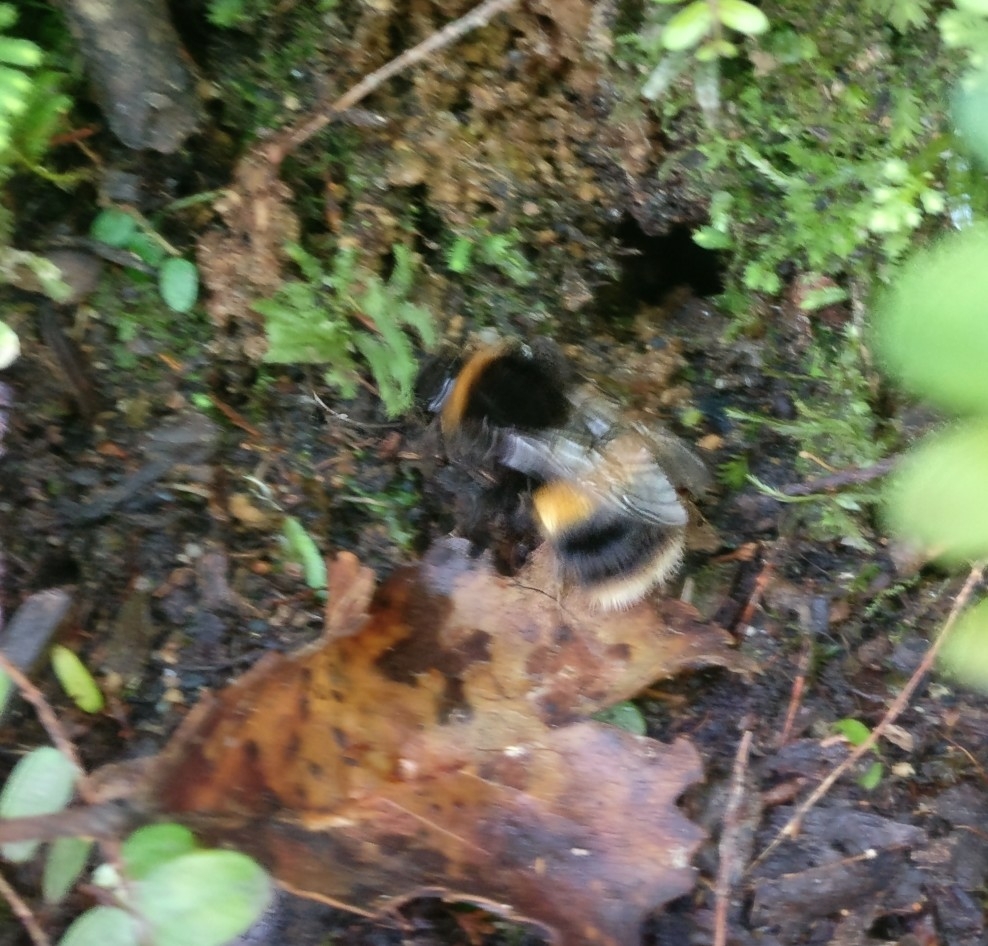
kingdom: Animalia
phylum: Arthropoda
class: Insecta
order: Hymenoptera
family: Apidae
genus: Bombus
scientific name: Bombus terrestris
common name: Buff-tailed bumblebee
